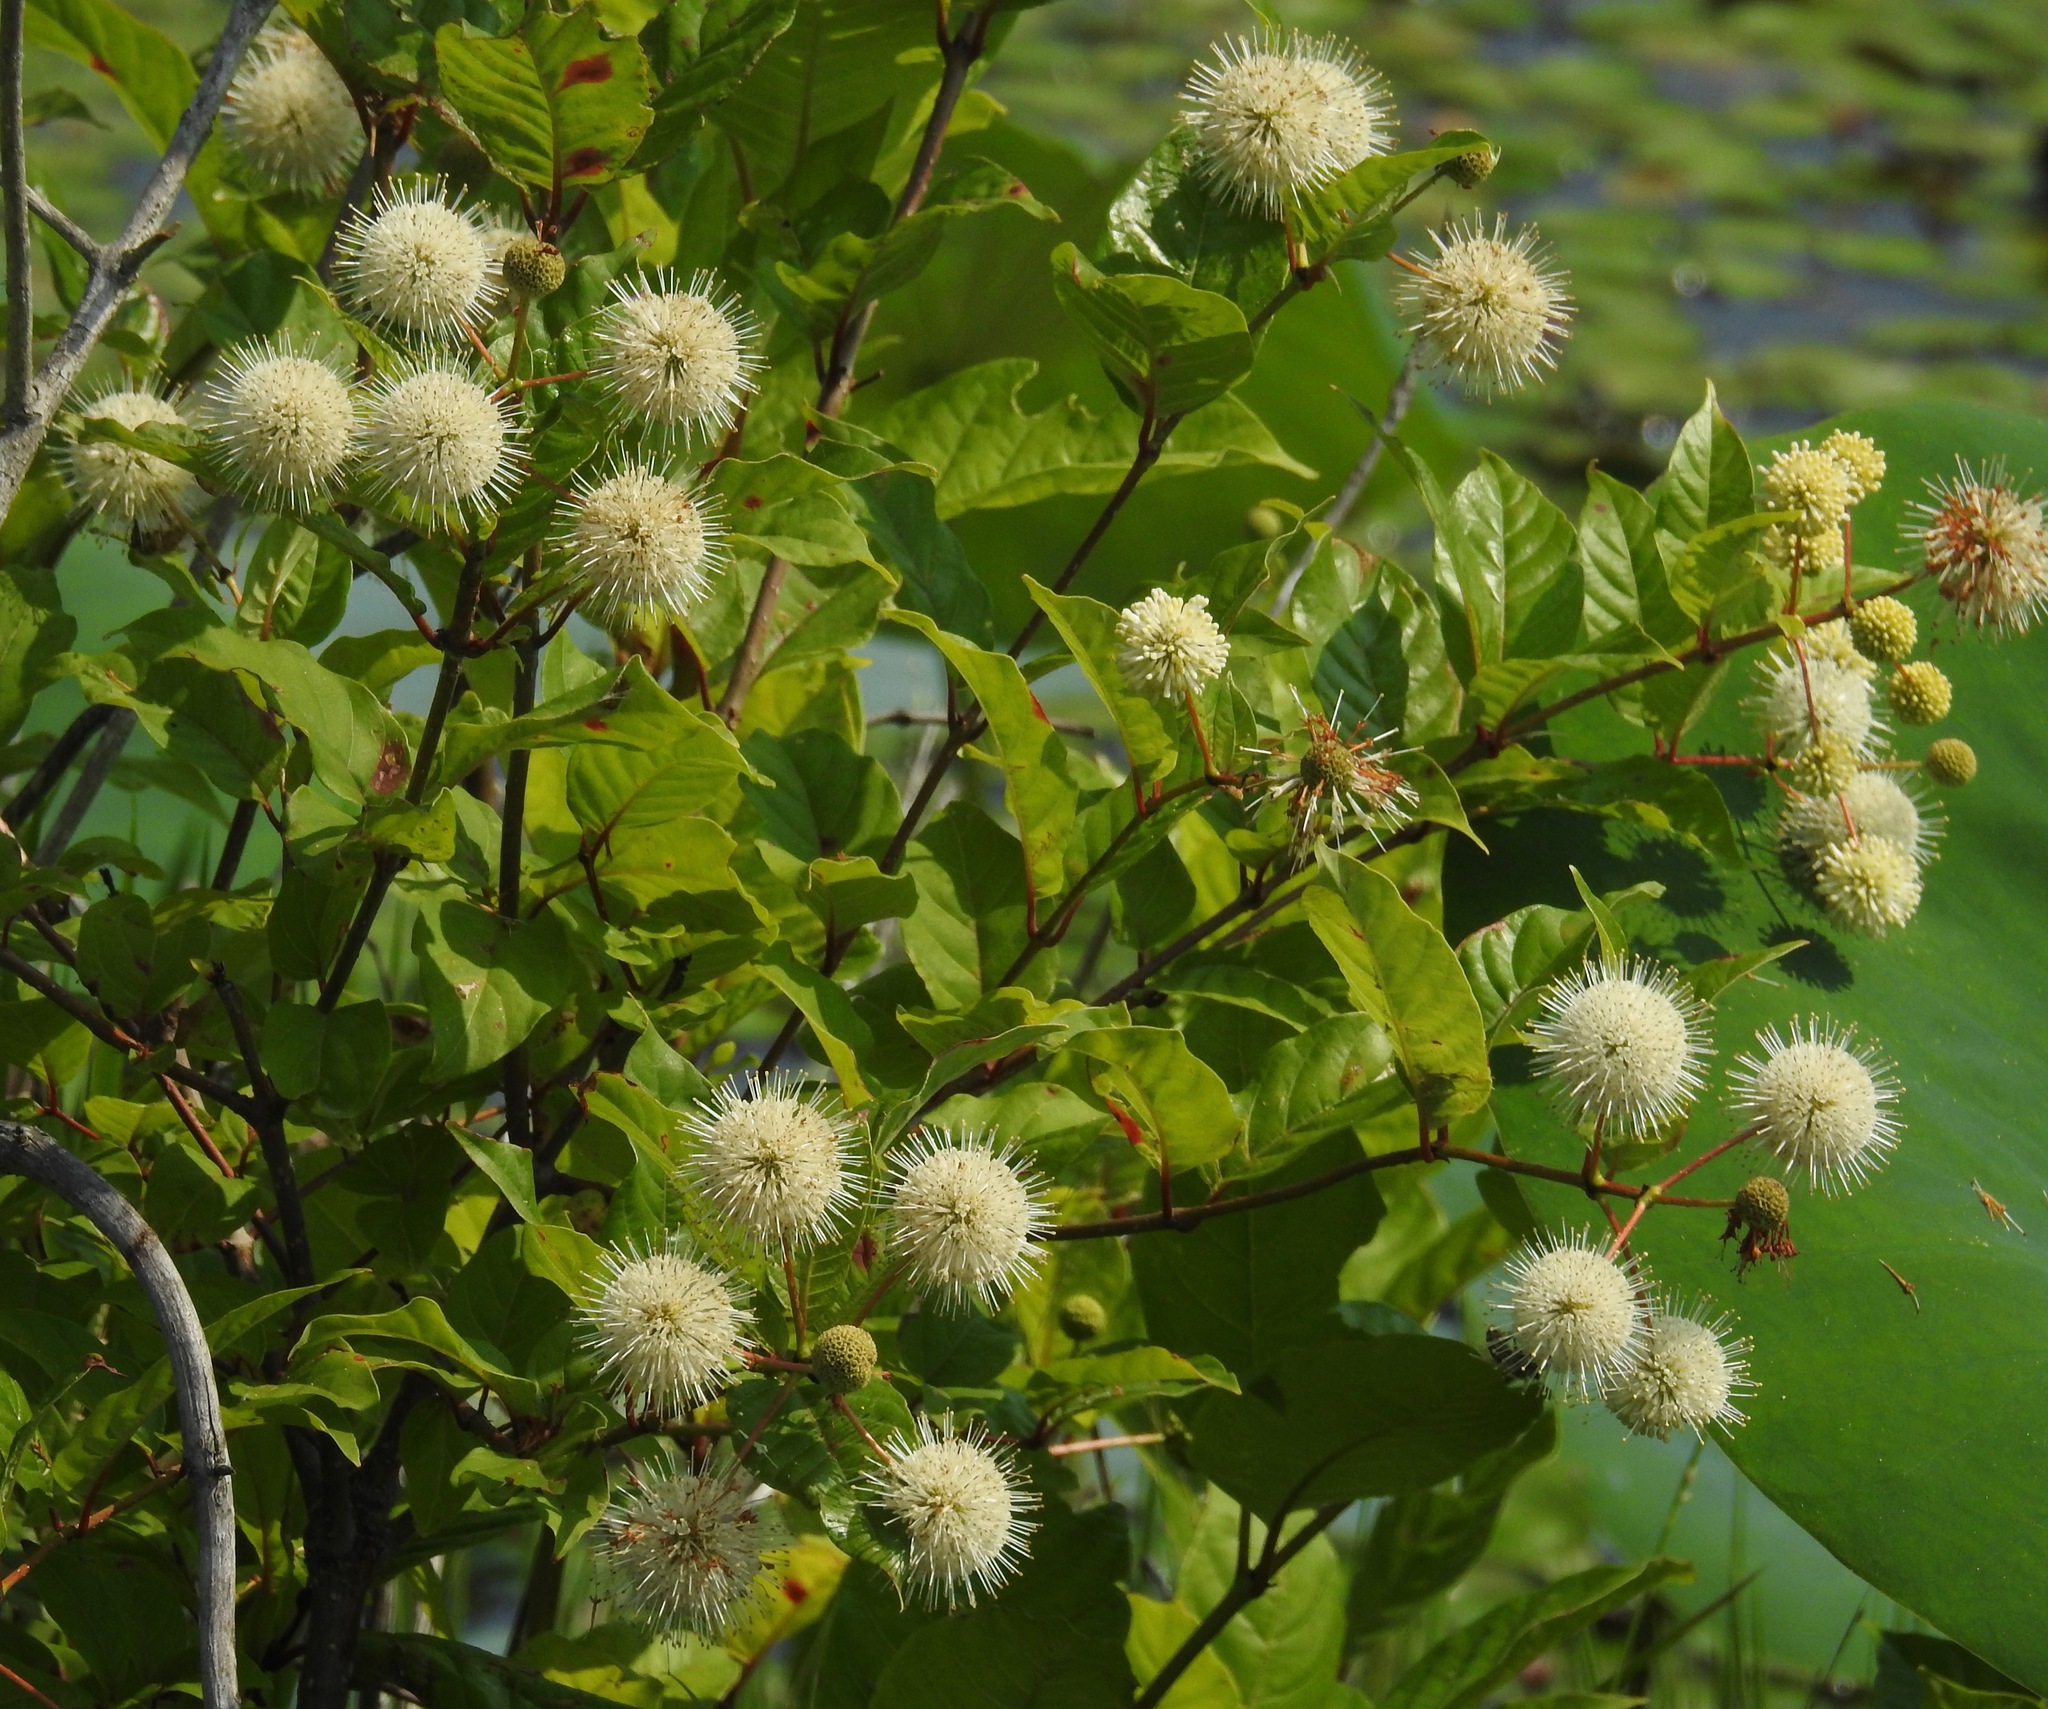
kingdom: Plantae
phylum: Tracheophyta
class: Magnoliopsida
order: Gentianales
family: Rubiaceae
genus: Cephalanthus
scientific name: Cephalanthus occidentalis
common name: Button-willow
